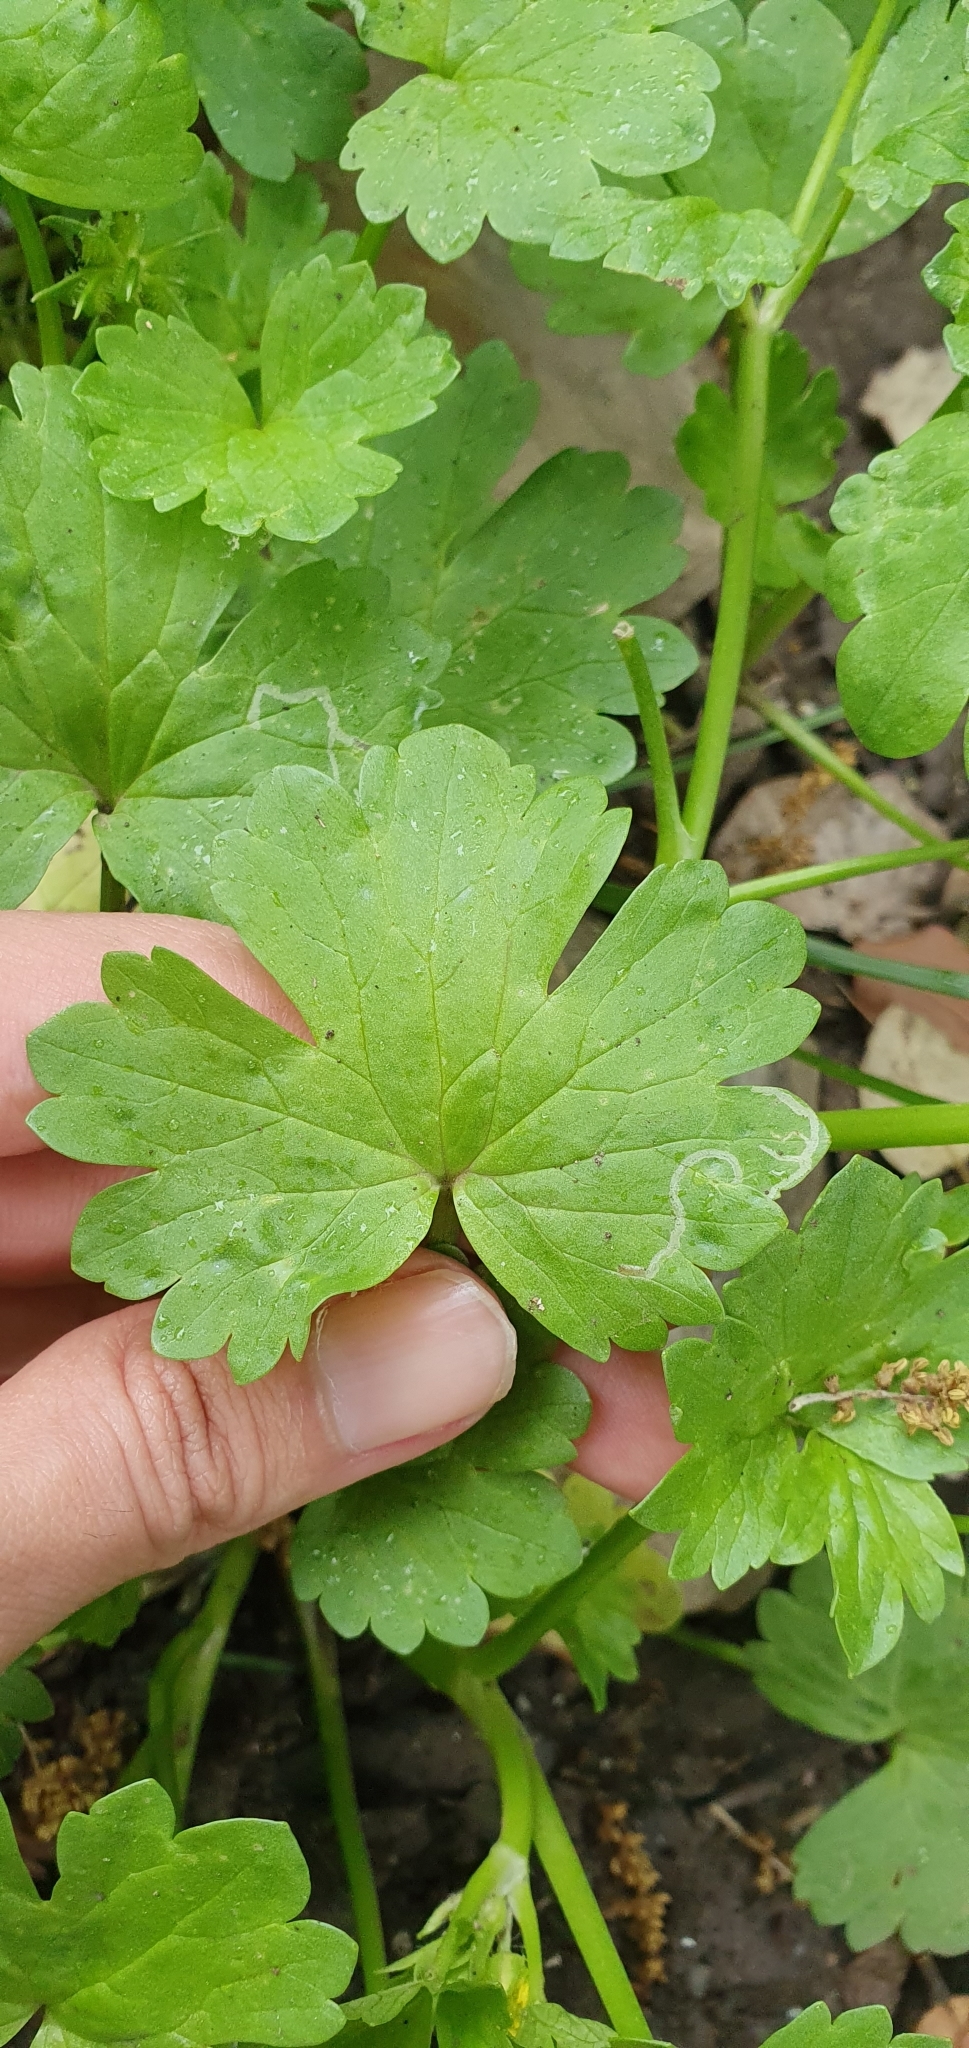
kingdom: Plantae
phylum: Tracheophyta
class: Magnoliopsida
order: Ranunculales
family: Ranunculaceae
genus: Ranunculus
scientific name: Ranunculus muricatus
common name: Rough-fruited buttercup
